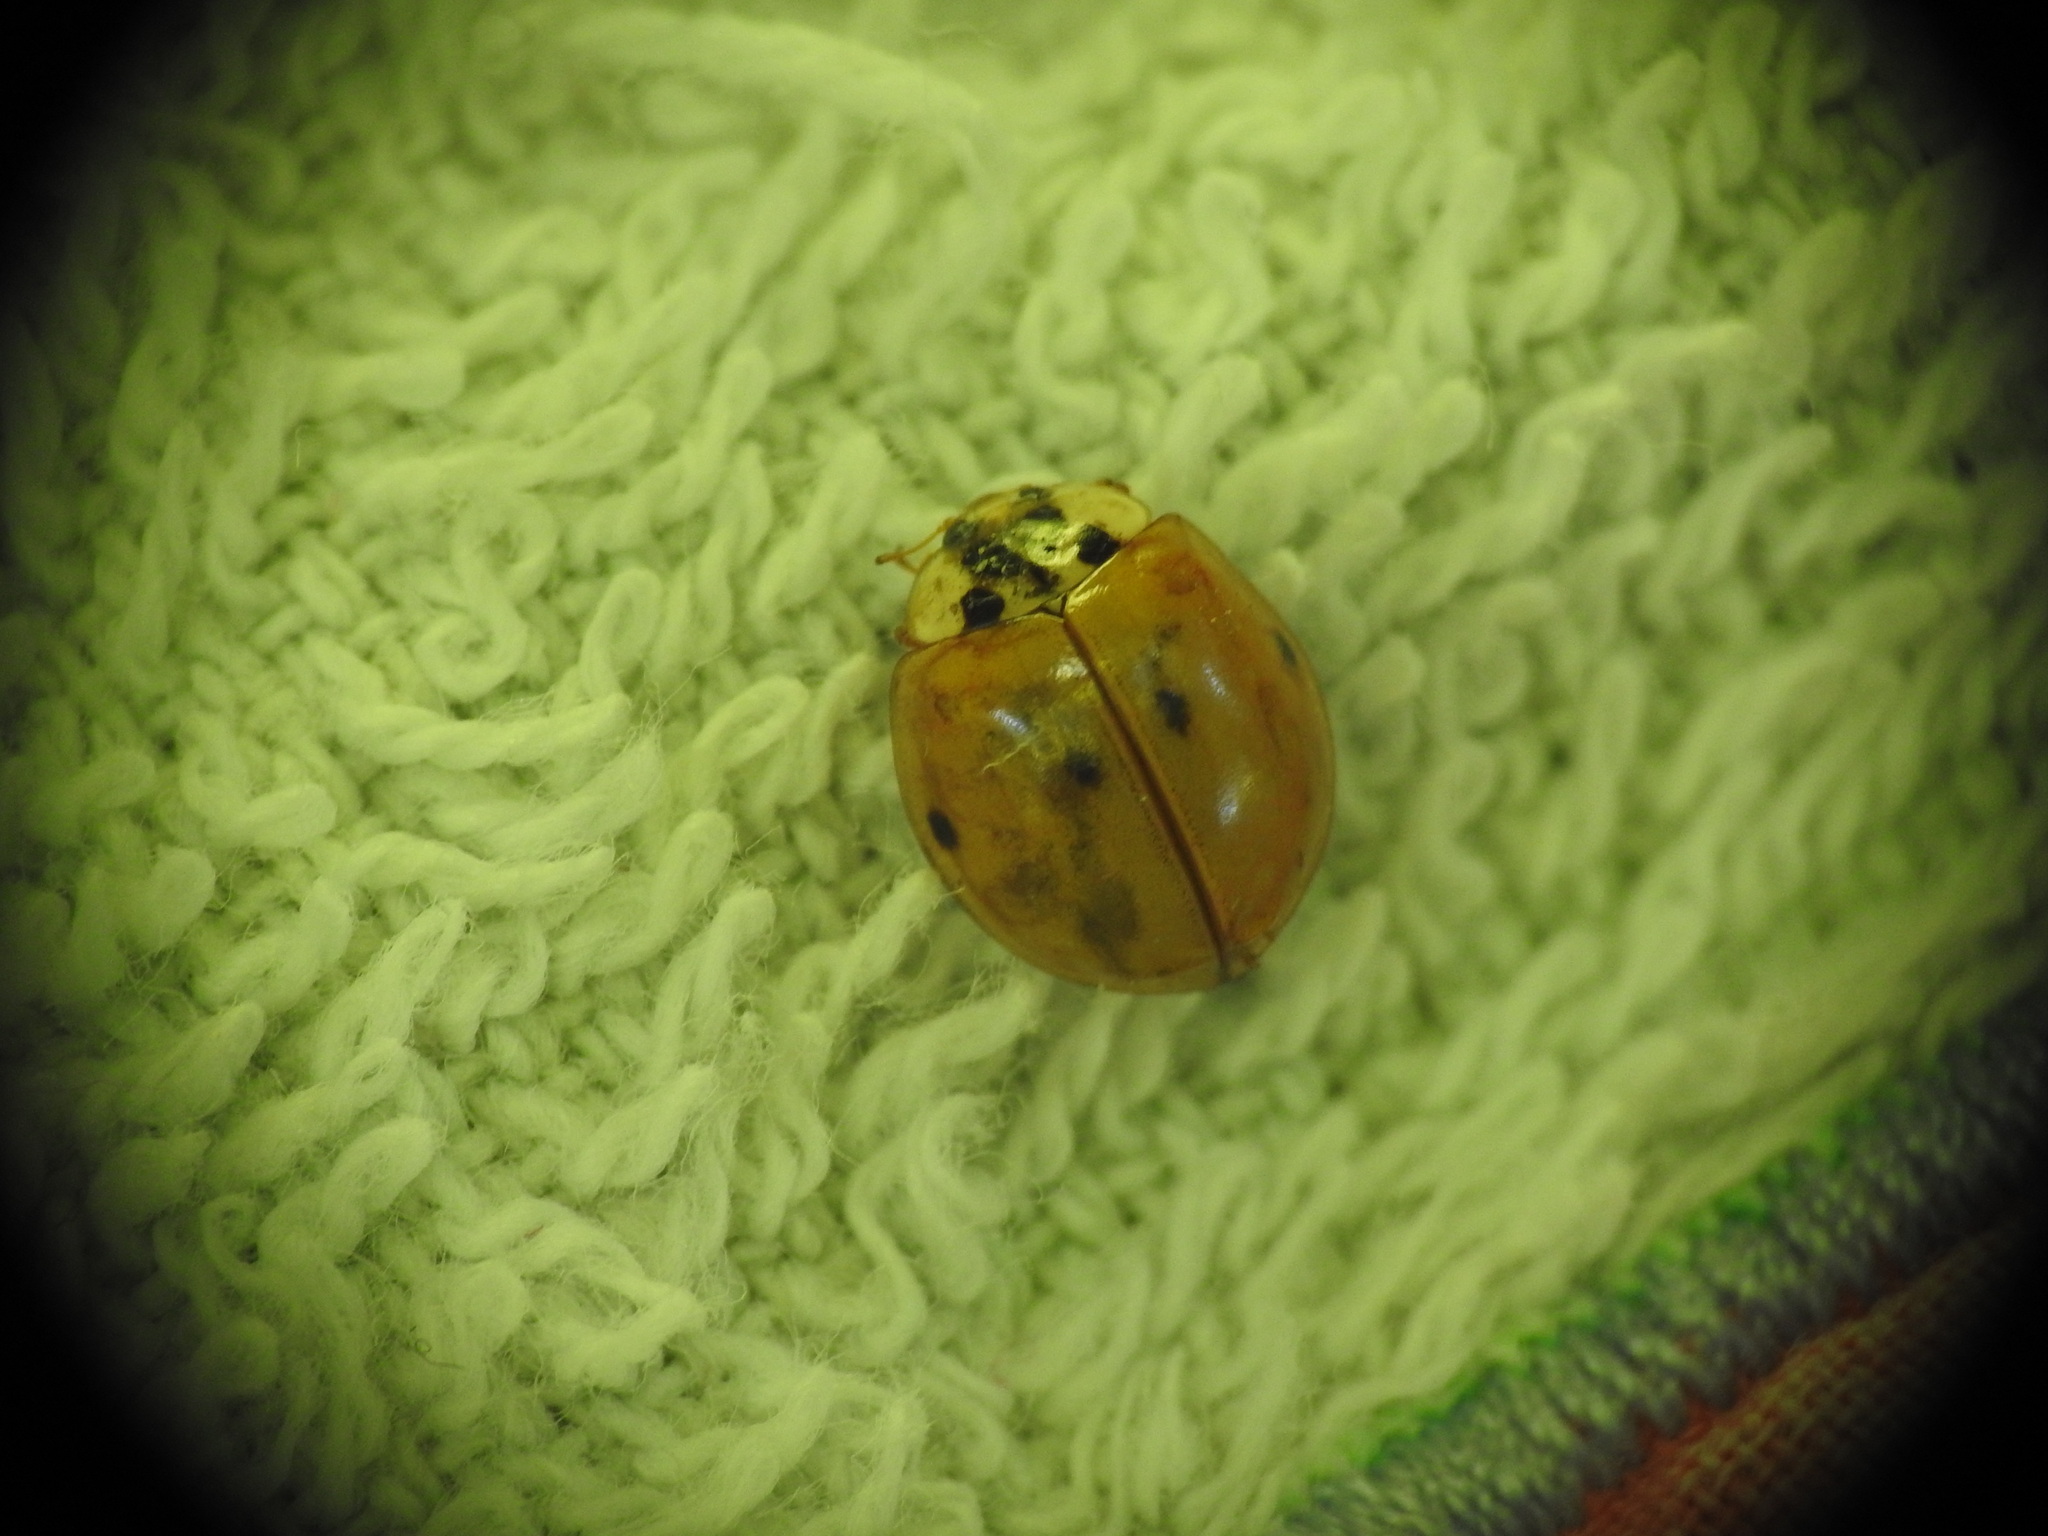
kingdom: Animalia
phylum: Arthropoda
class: Insecta
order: Coleoptera
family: Coccinellidae
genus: Harmonia
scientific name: Harmonia axyridis
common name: Harlequin ladybird
